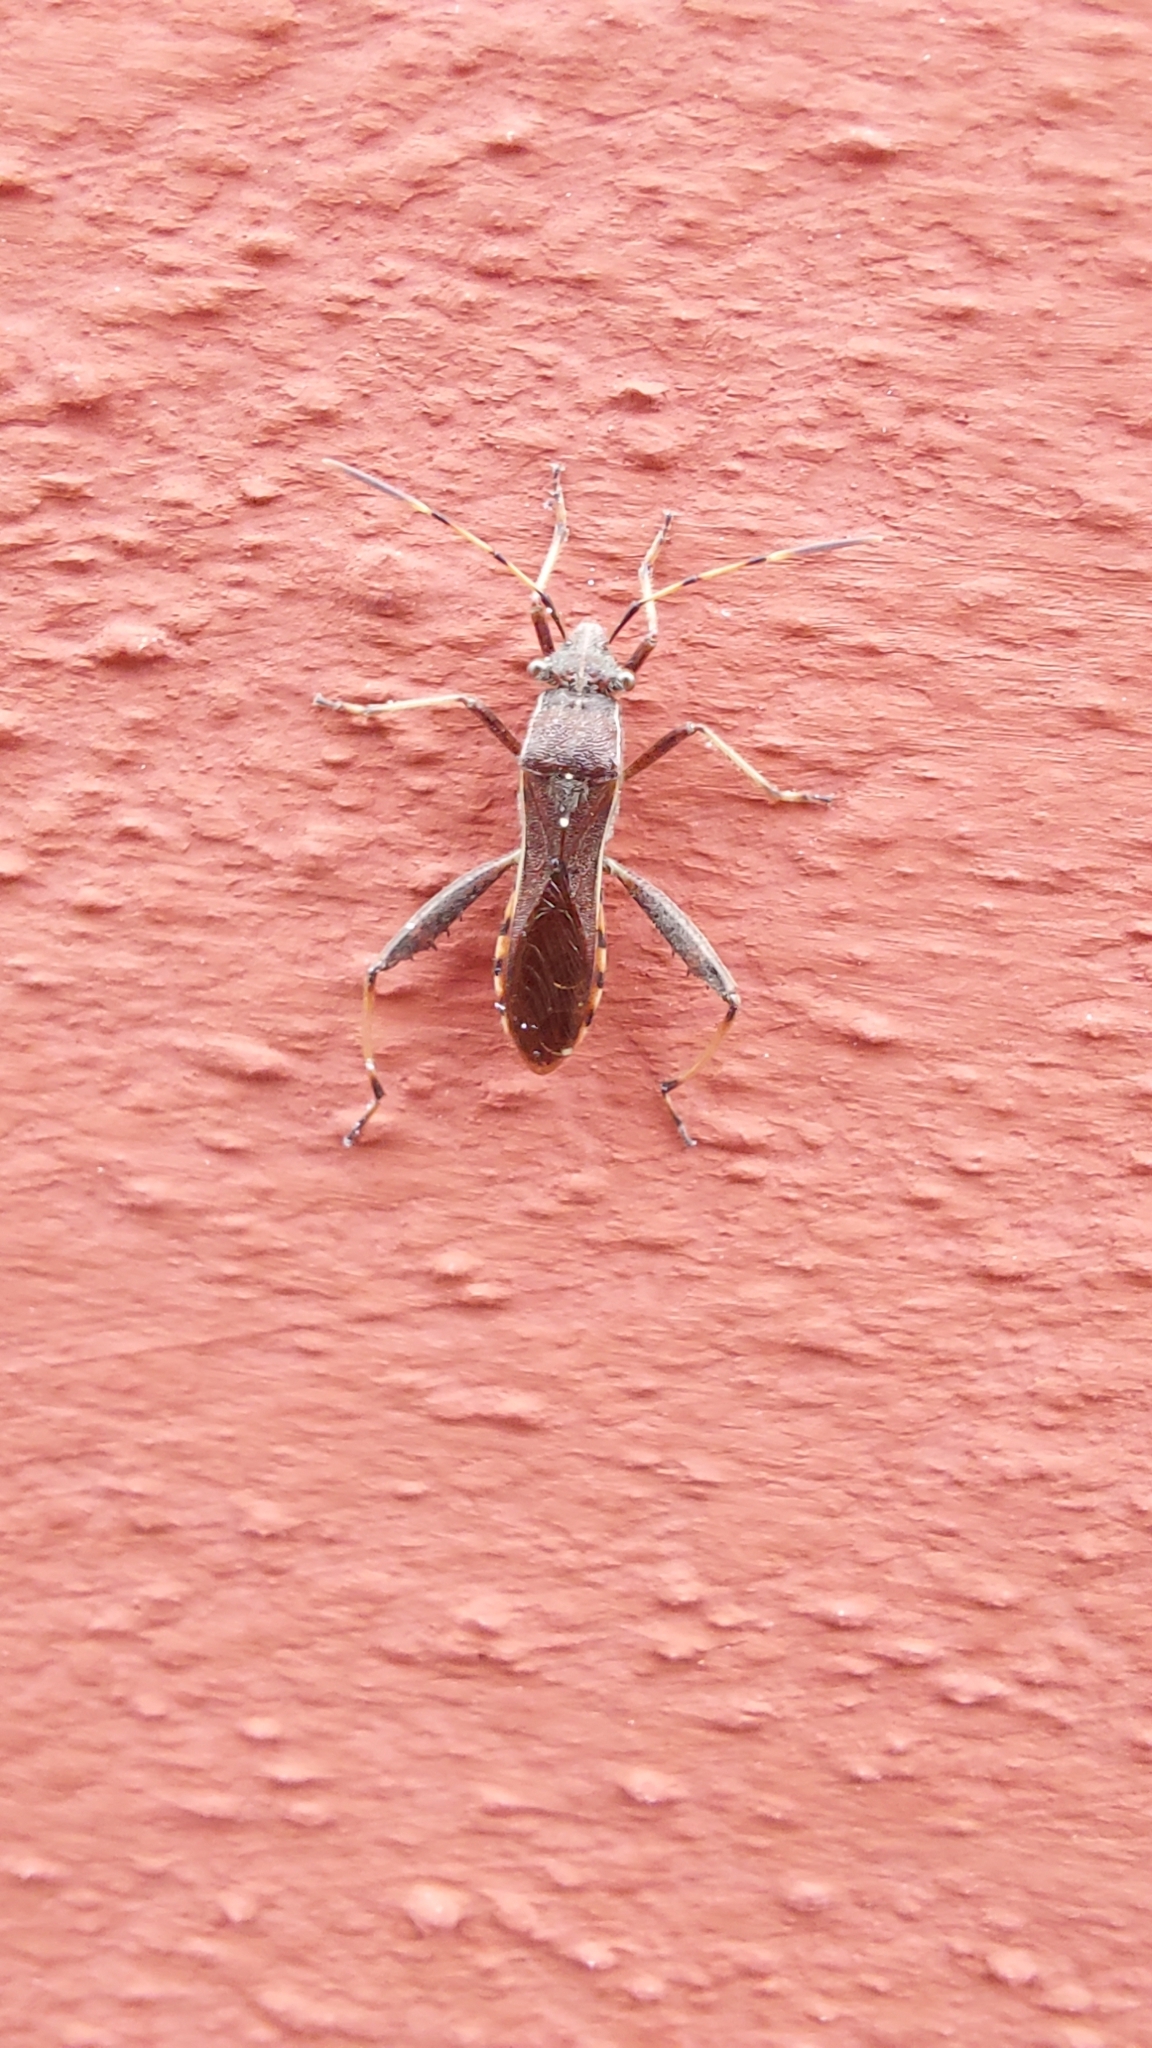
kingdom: Animalia
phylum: Arthropoda
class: Insecta
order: Hemiptera
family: Alydidae
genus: Camptopus
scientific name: Camptopus lateralis
